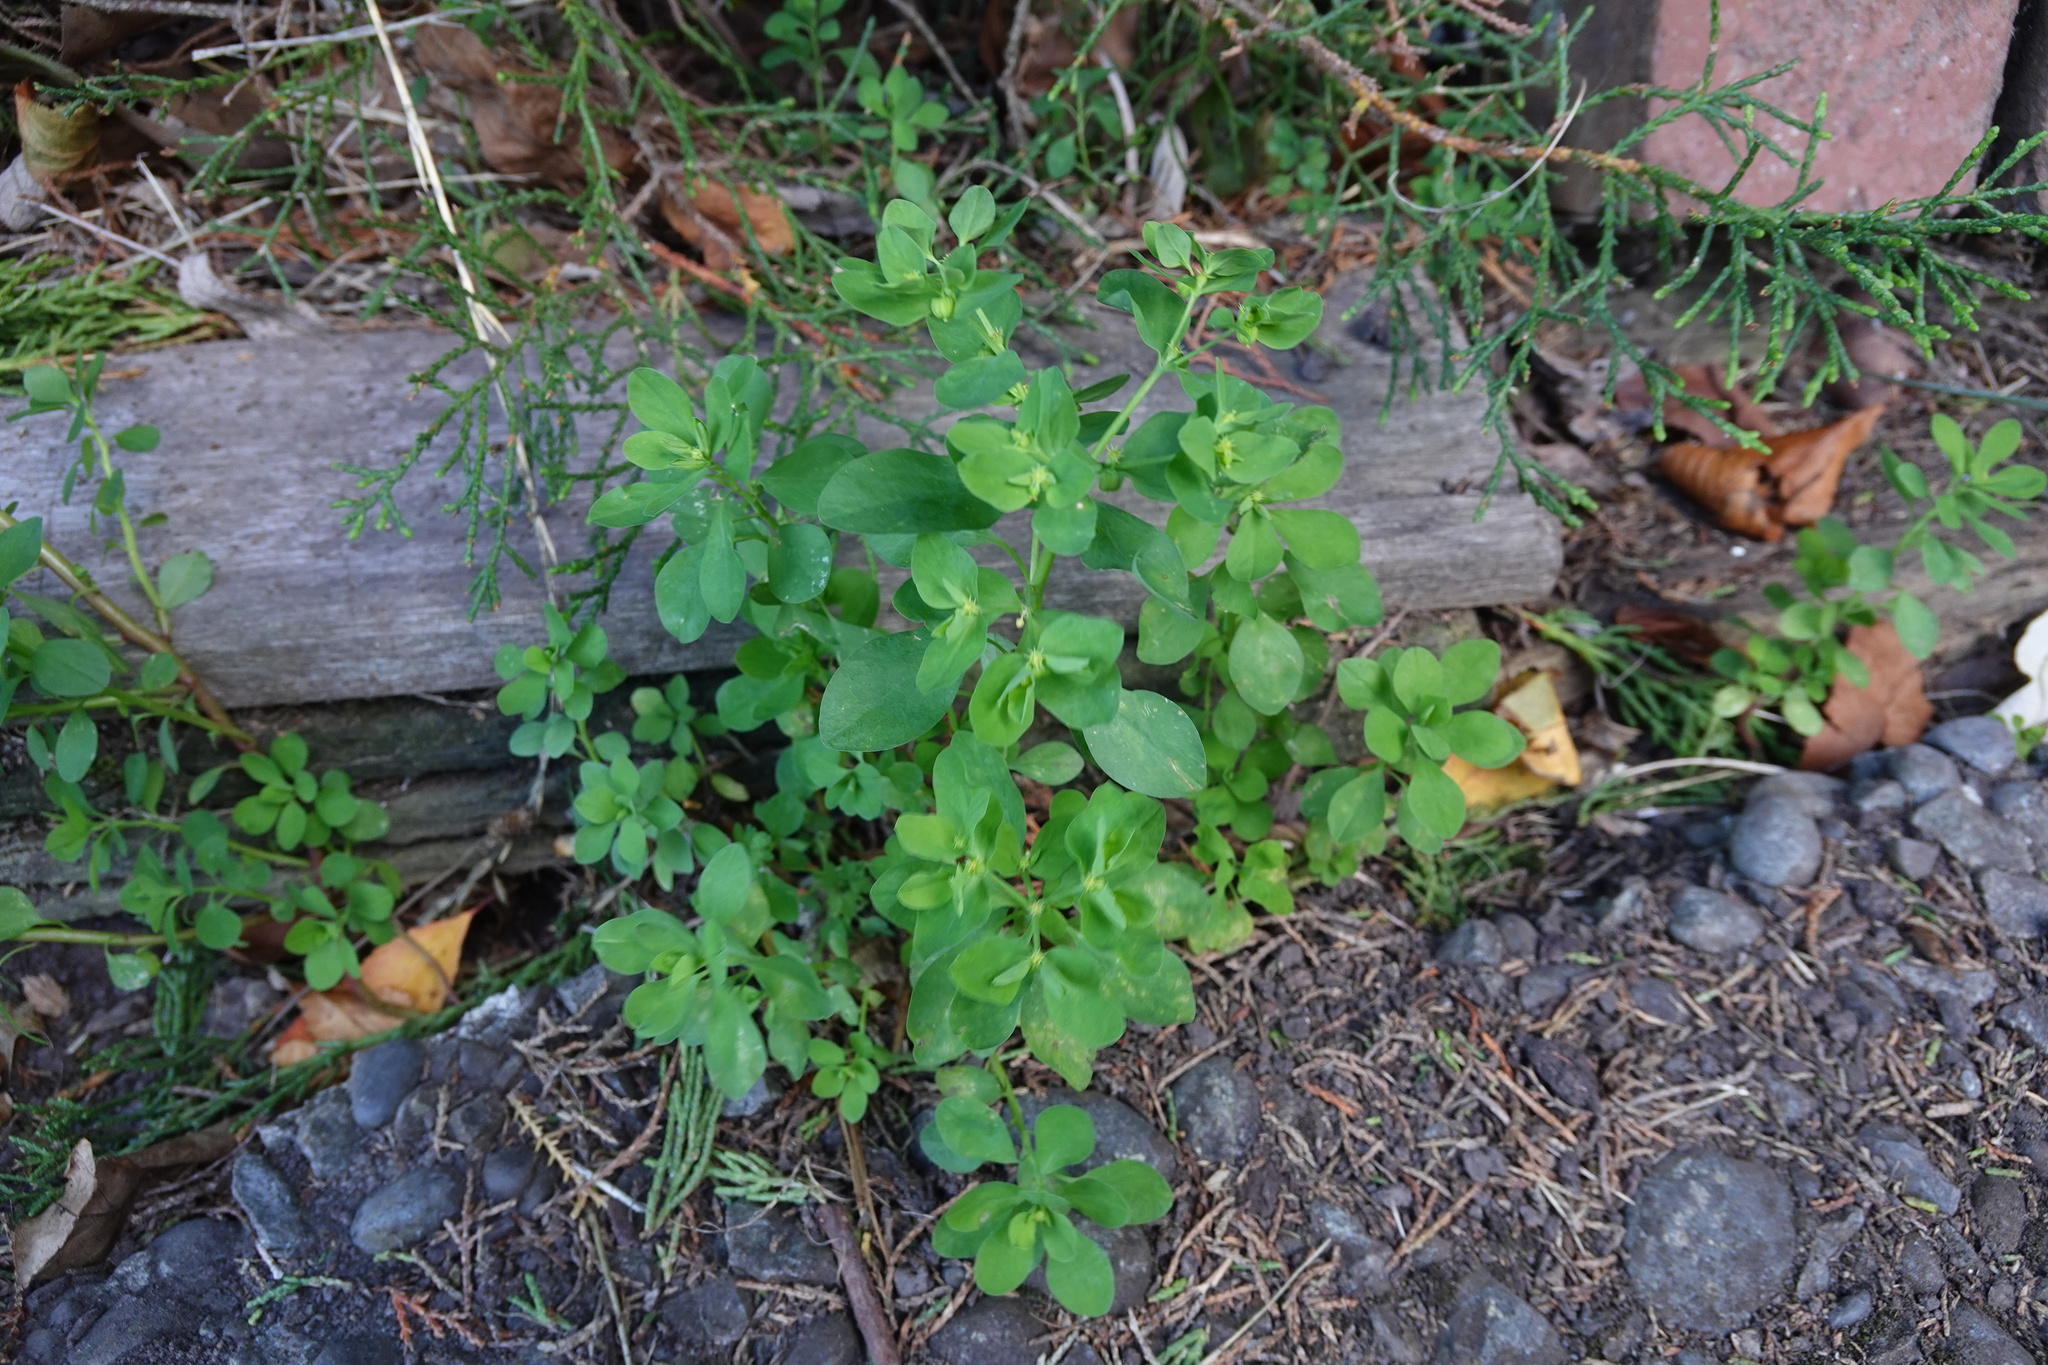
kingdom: Plantae
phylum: Tracheophyta
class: Magnoliopsida
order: Malpighiales
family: Euphorbiaceae
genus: Euphorbia
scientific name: Euphorbia peplus
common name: Petty spurge
